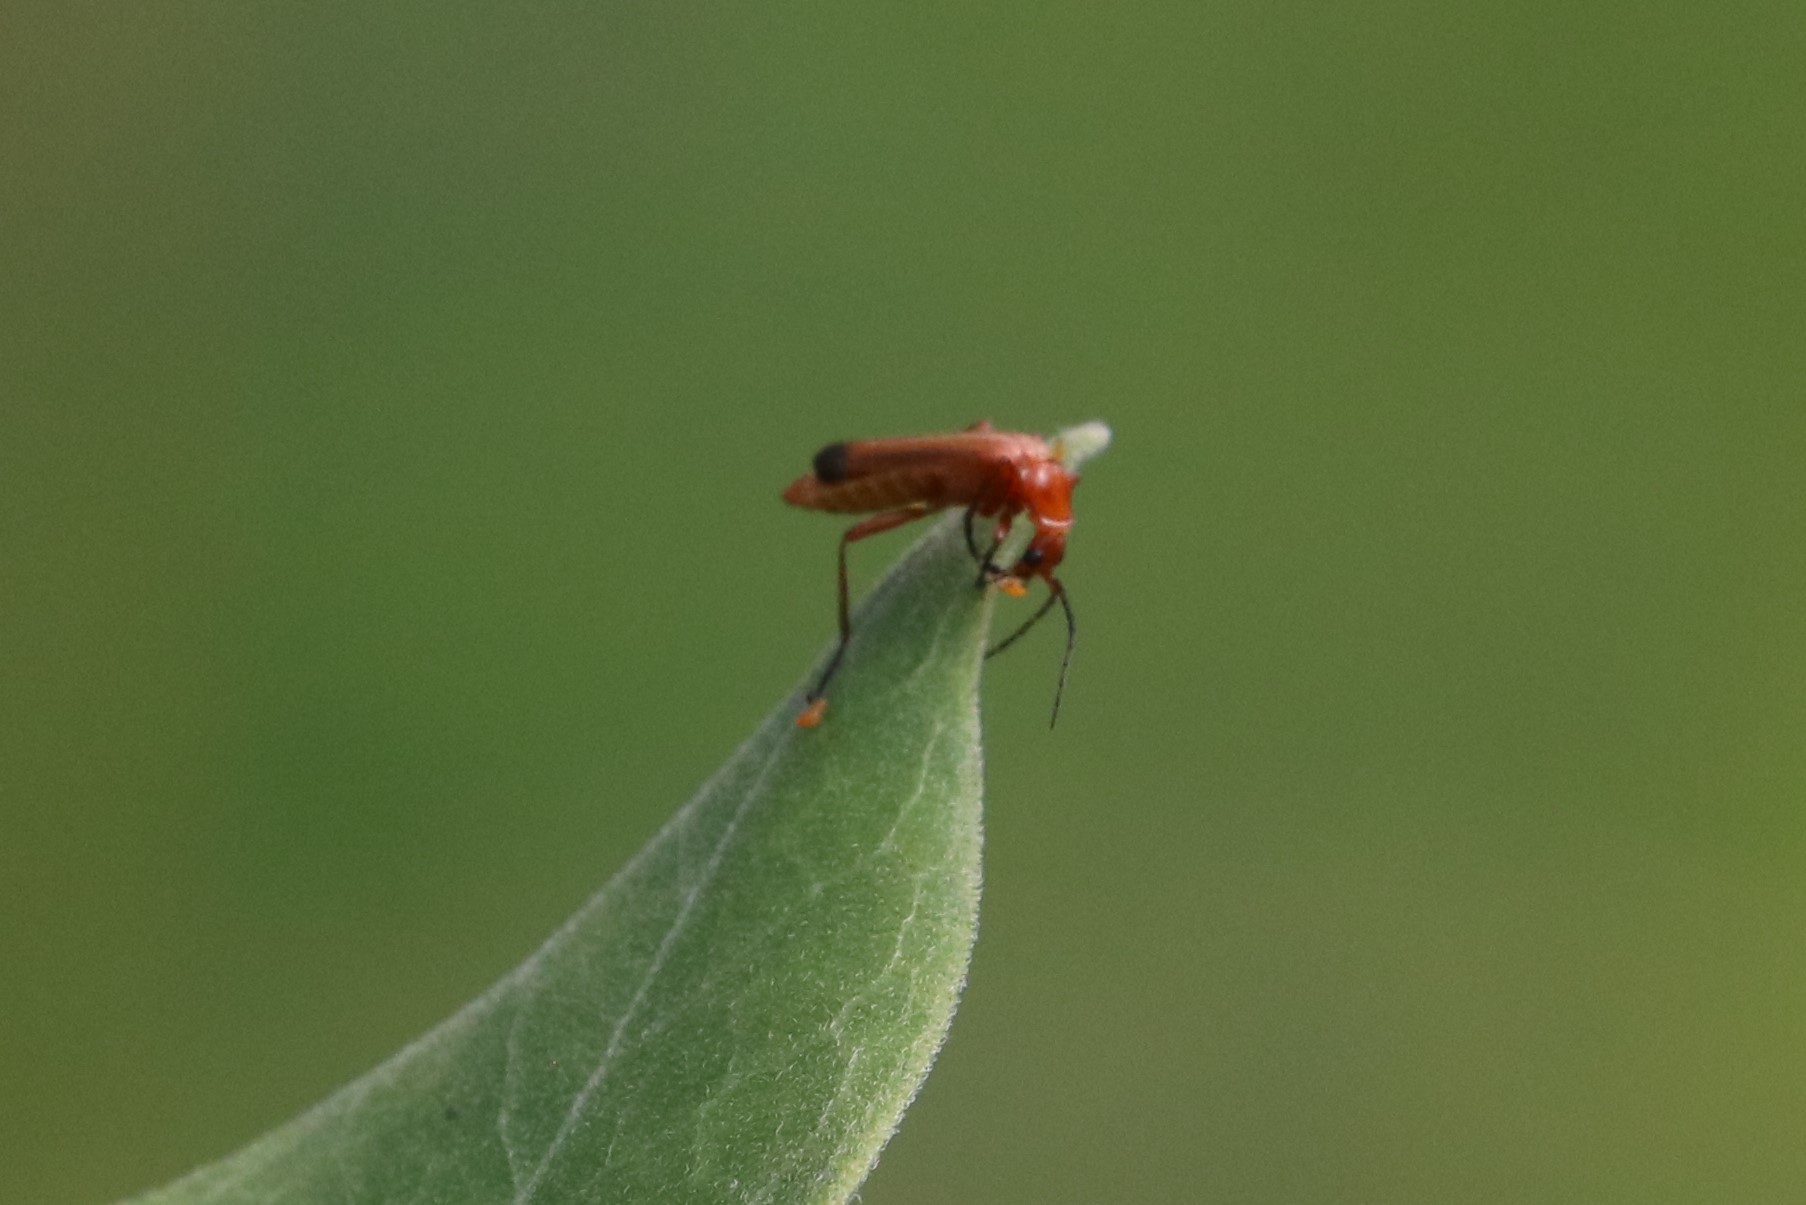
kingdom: Animalia
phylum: Arthropoda
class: Insecta
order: Coleoptera
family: Cantharidae
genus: Rhagonycha
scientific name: Rhagonycha fulva
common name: Common red soldier beetle
